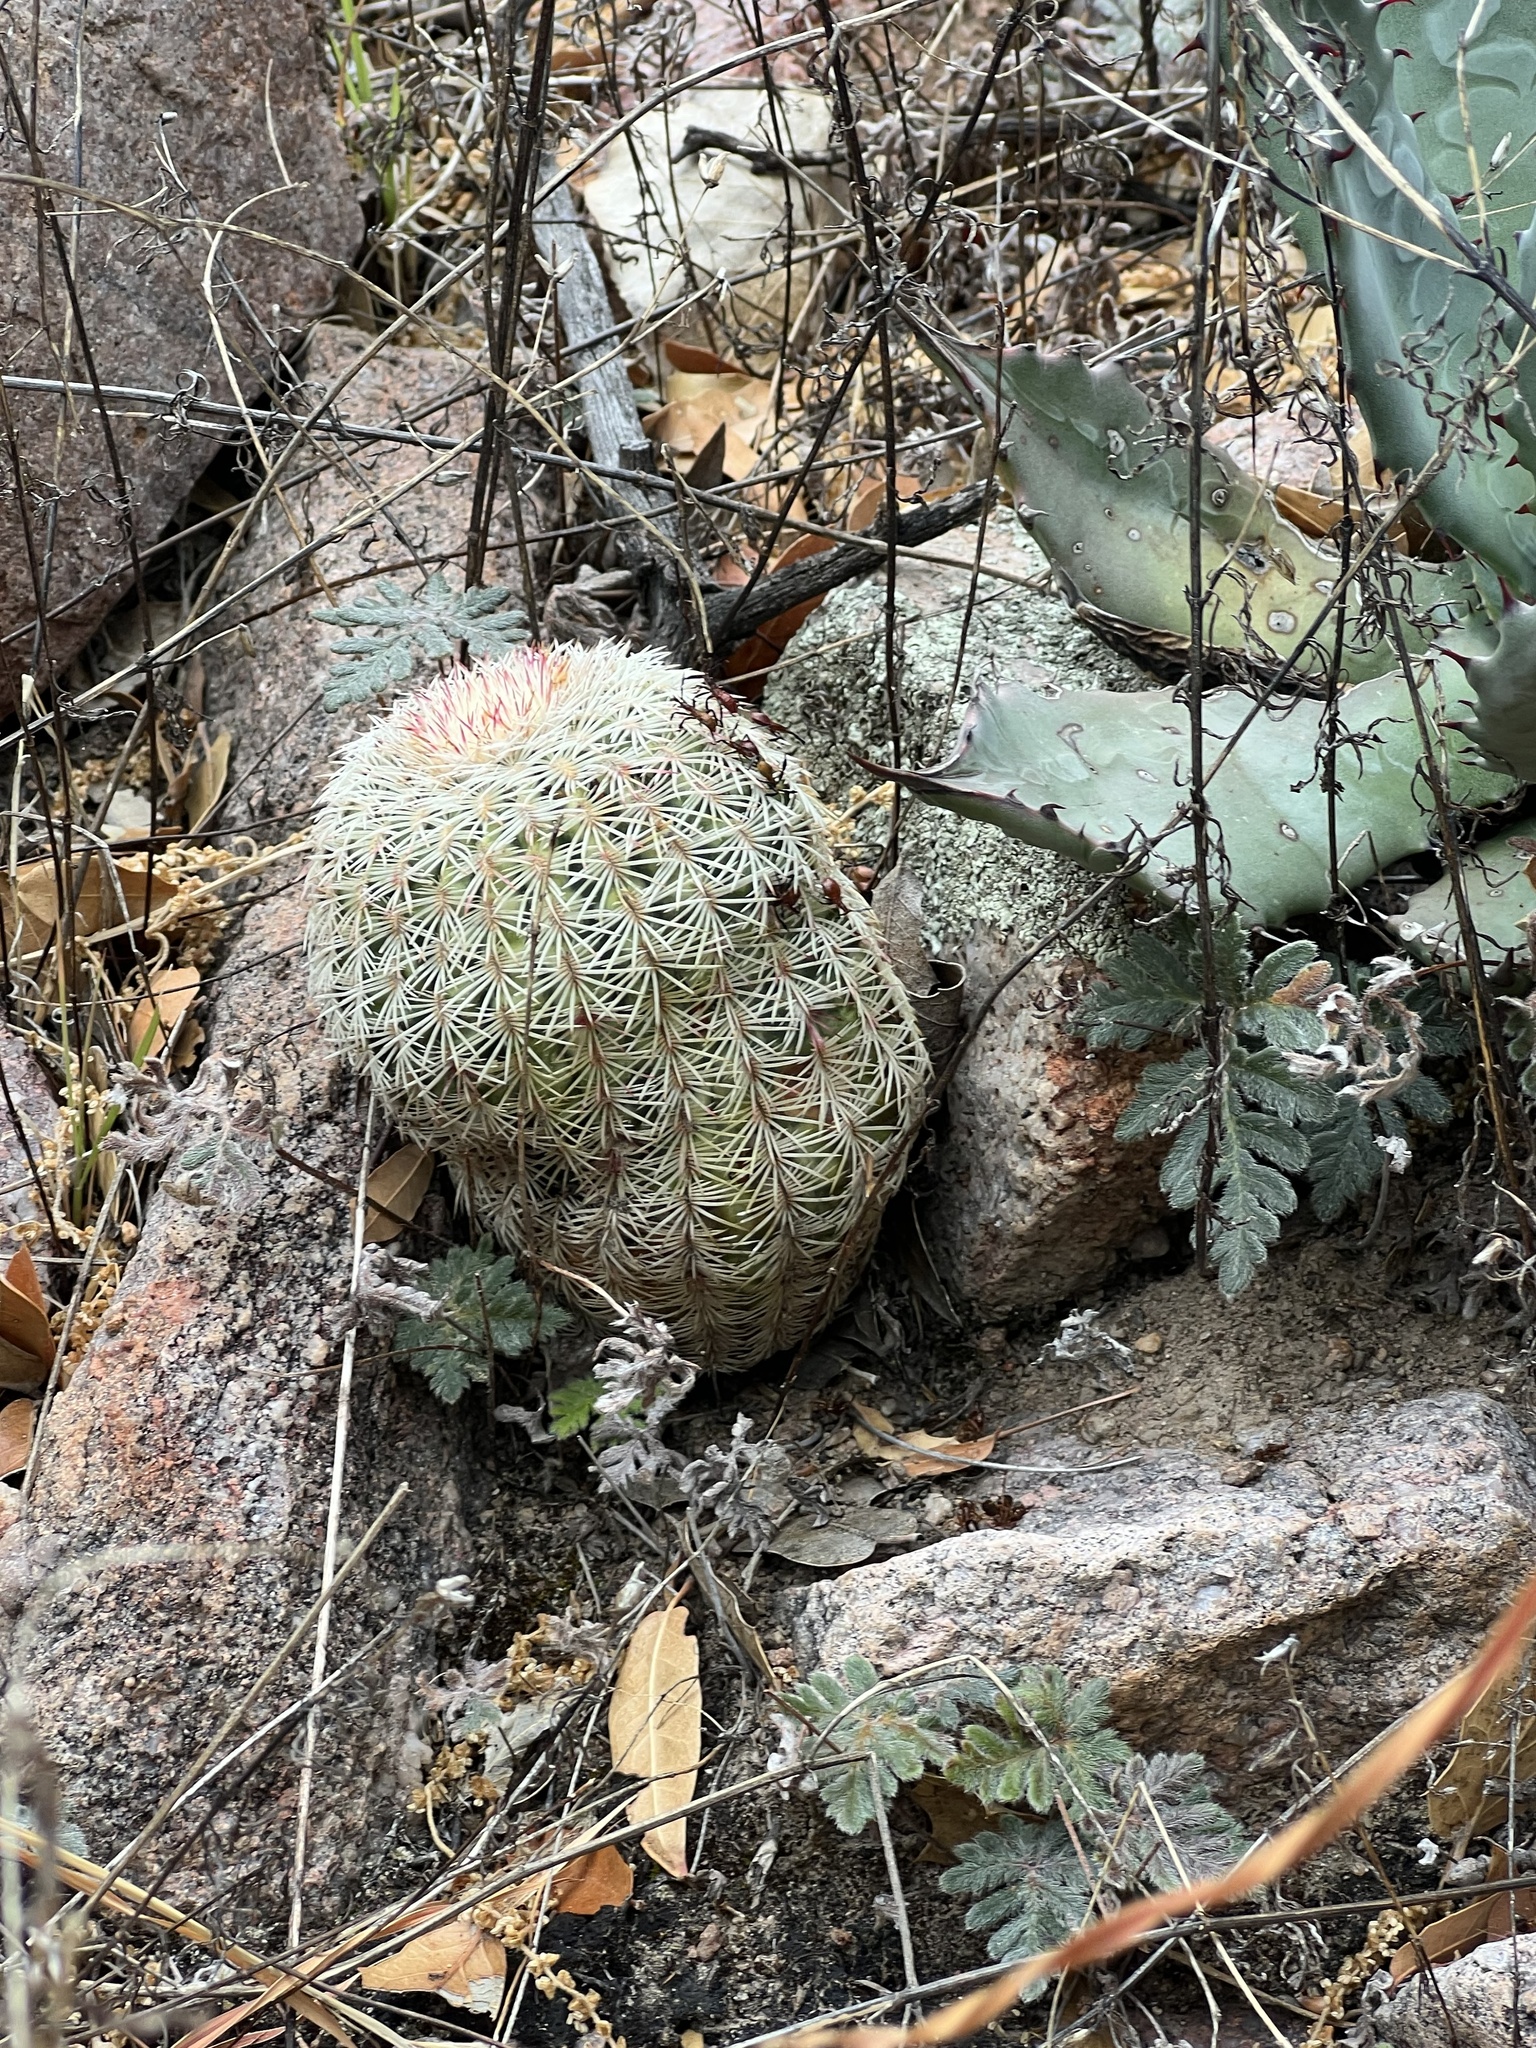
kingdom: Plantae
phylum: Tracheophyta
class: Magnoliopsida
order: Caryophyllales
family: Cactaceae
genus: Echinocereus
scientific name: Echinocereus rigidissimus
